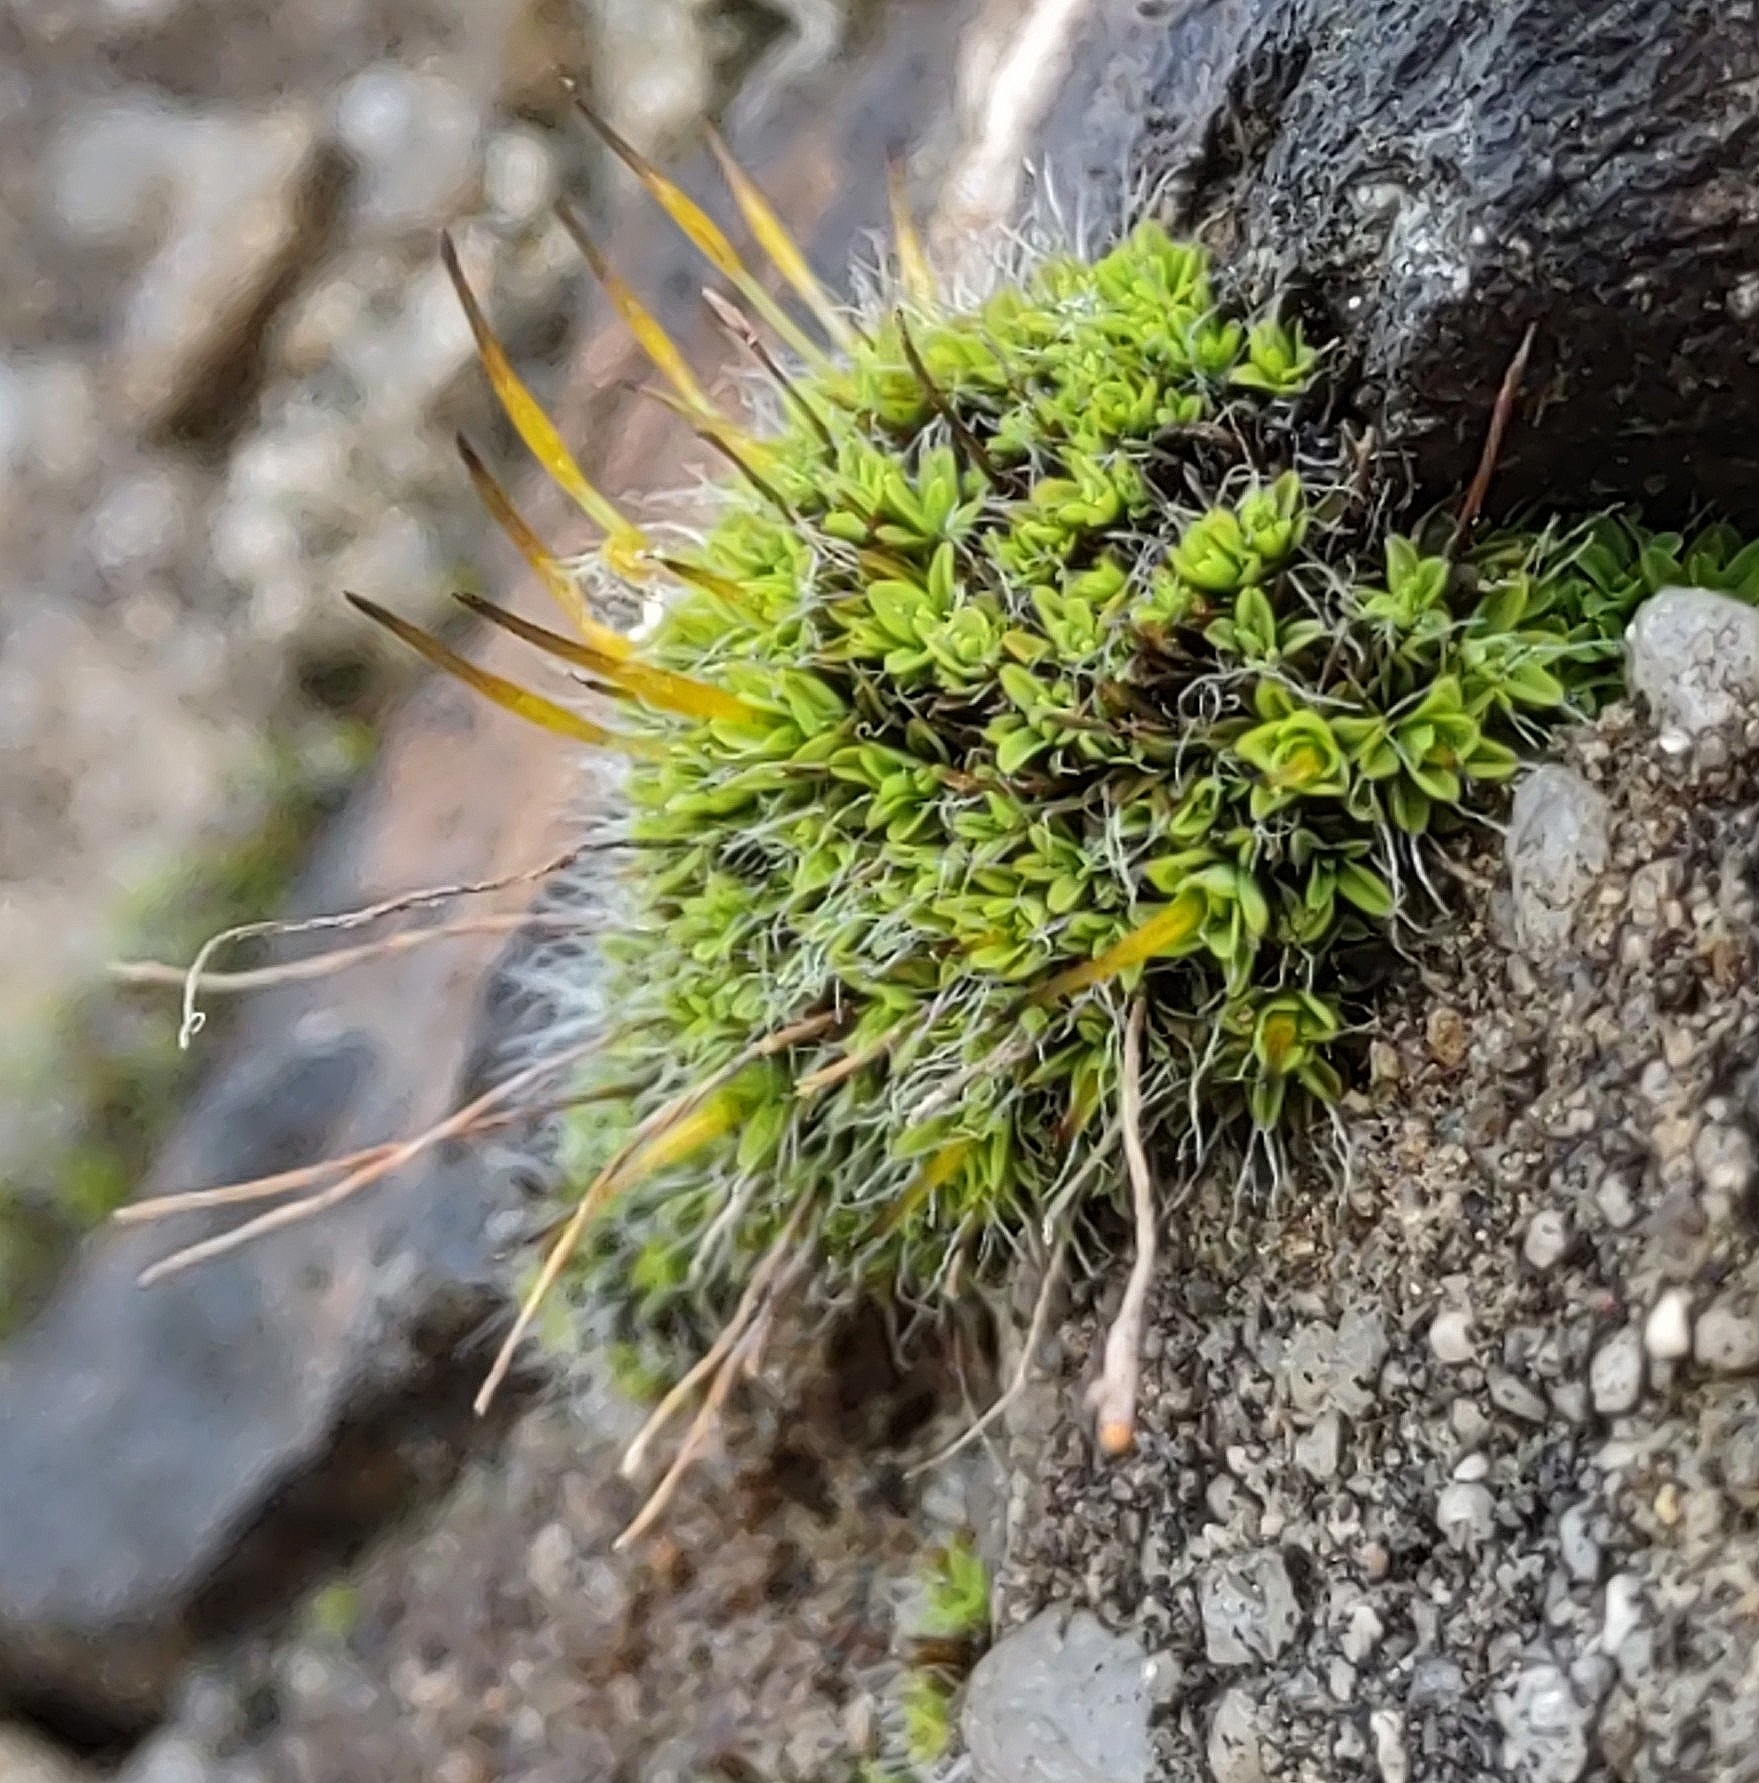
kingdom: Plantae
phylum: Bryophyta
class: Bryopsida
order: Pottiales
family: Pottiaceae
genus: Tortula
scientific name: Tortula muralis
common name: Wall screw-moss
